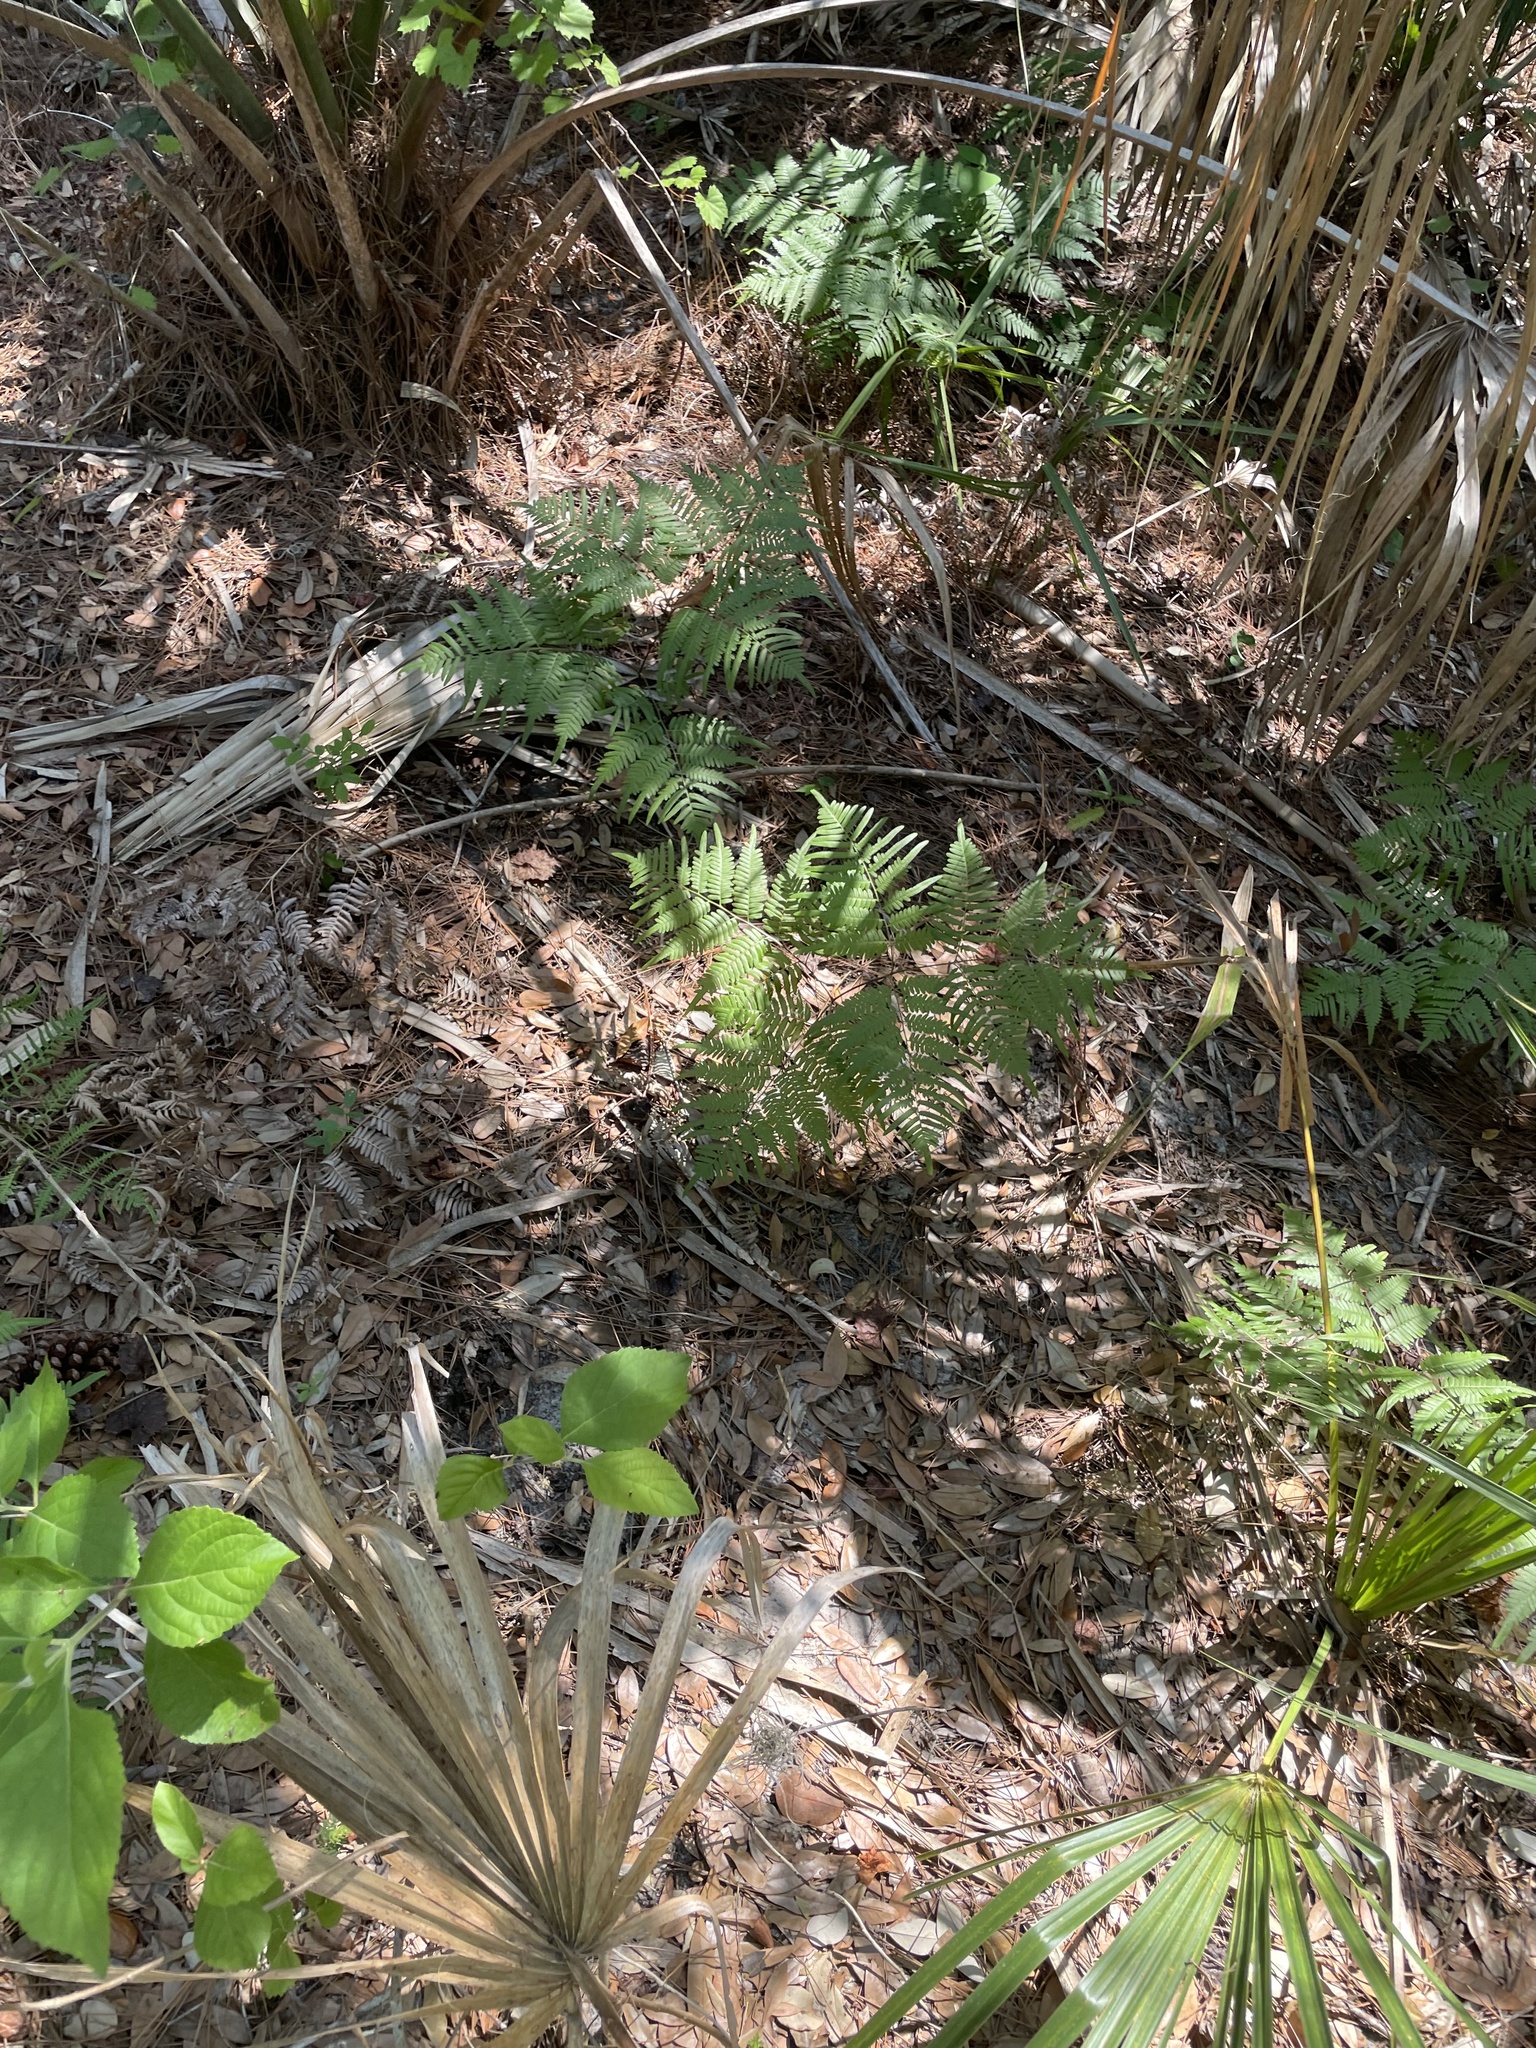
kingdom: Plantae
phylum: Tracheophyta
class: Polypodiopsida
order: Polypodiales
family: Dennstaedtiaceae
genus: Pteridium
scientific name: Pteridium
